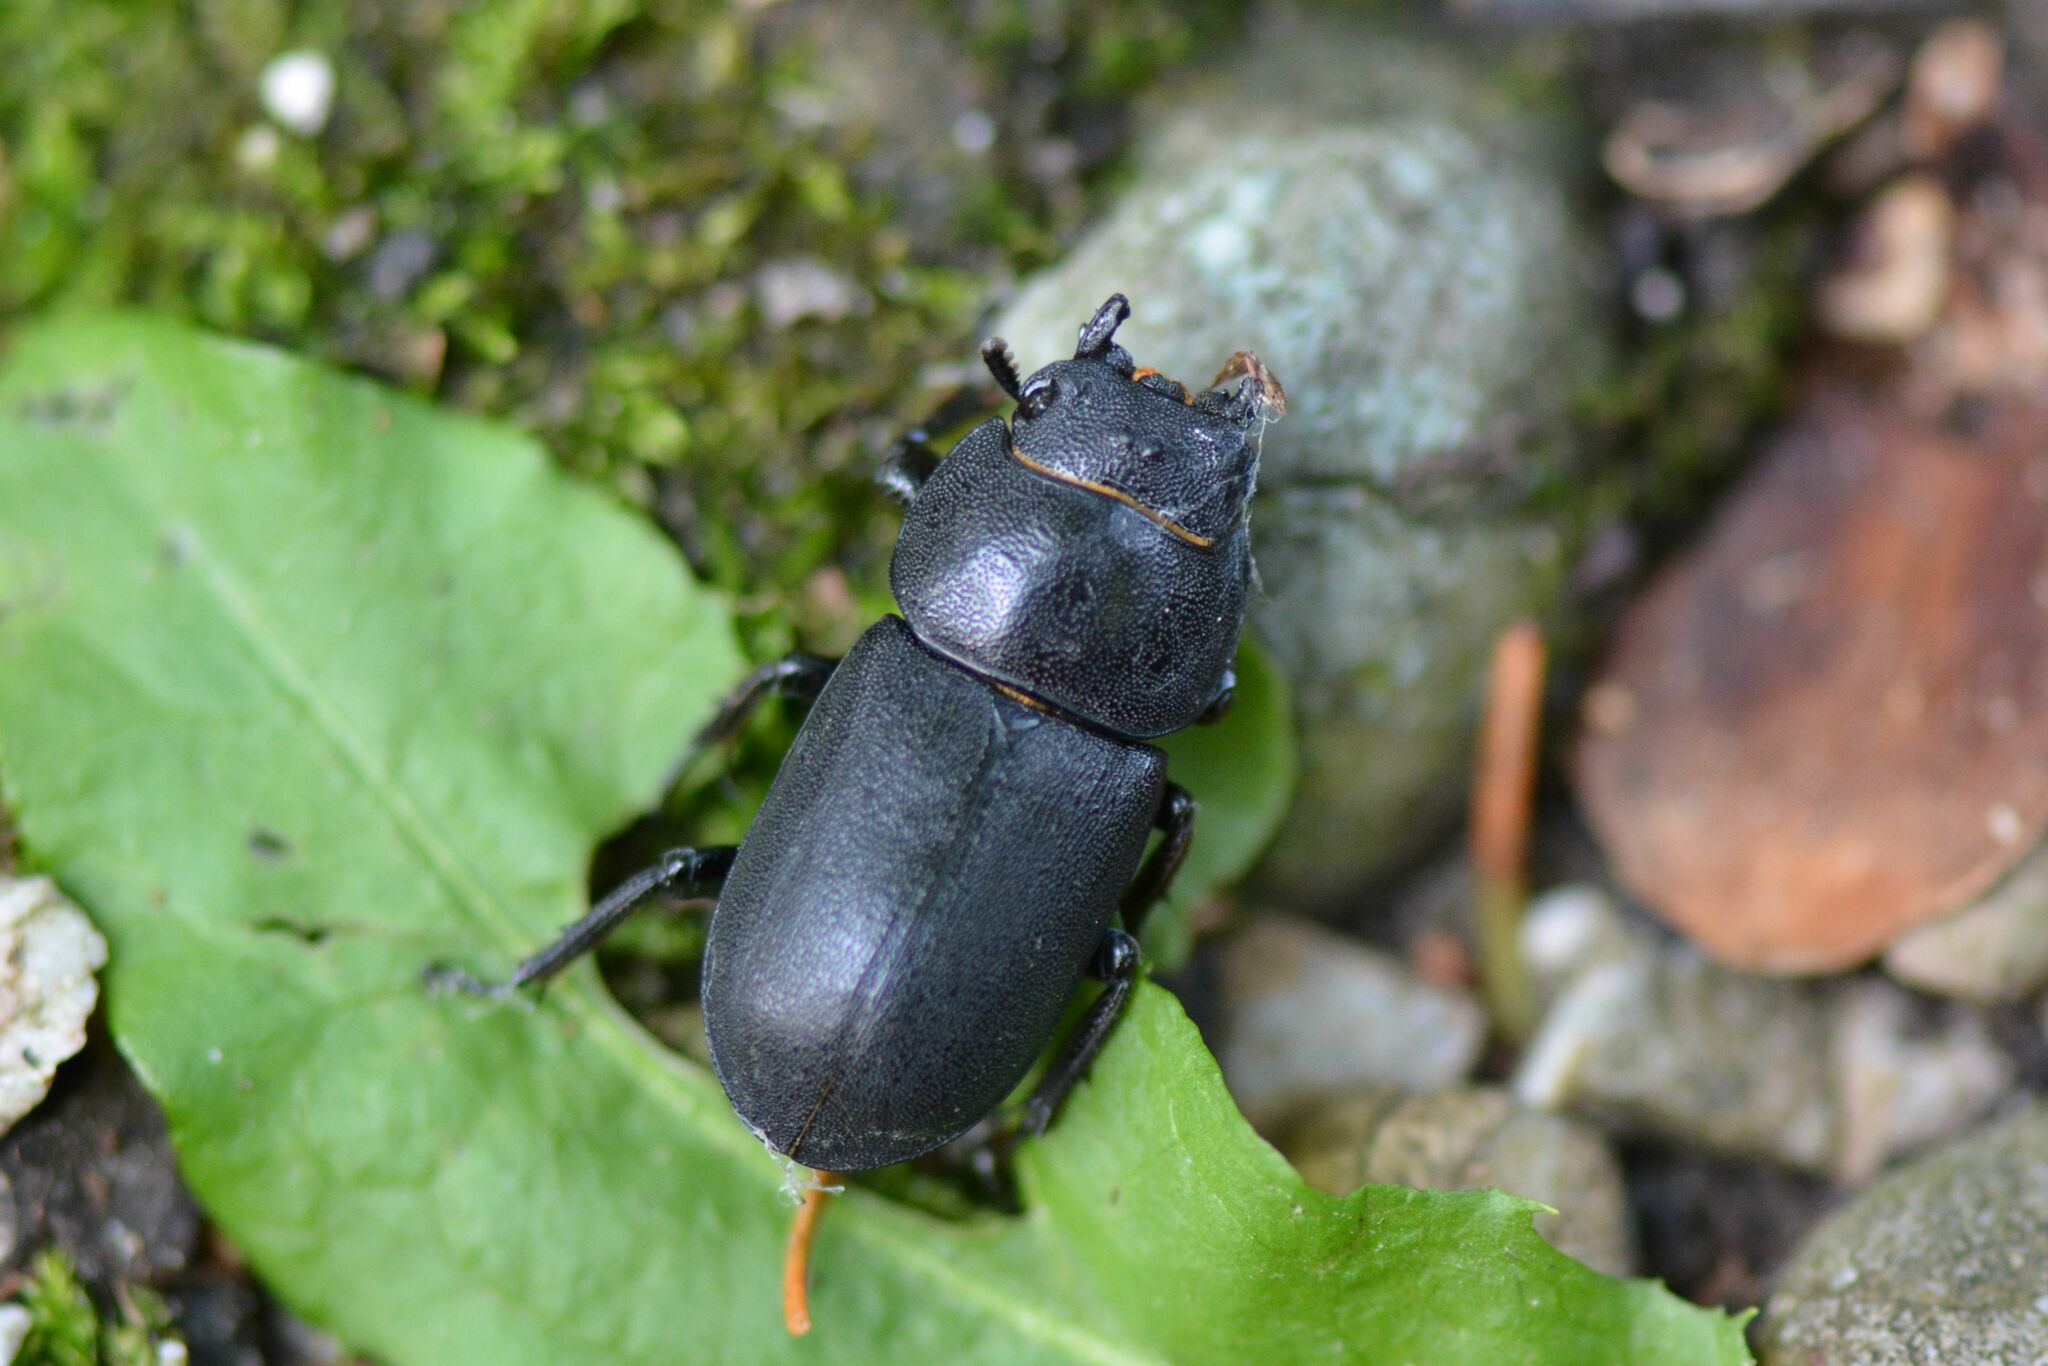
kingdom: Animalia
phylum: Arthropoda
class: Insecta
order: Coleoptera
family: Lucanidae
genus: Dorcus
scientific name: Dorcus parallelipipedus
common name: Lesser stag beetle
